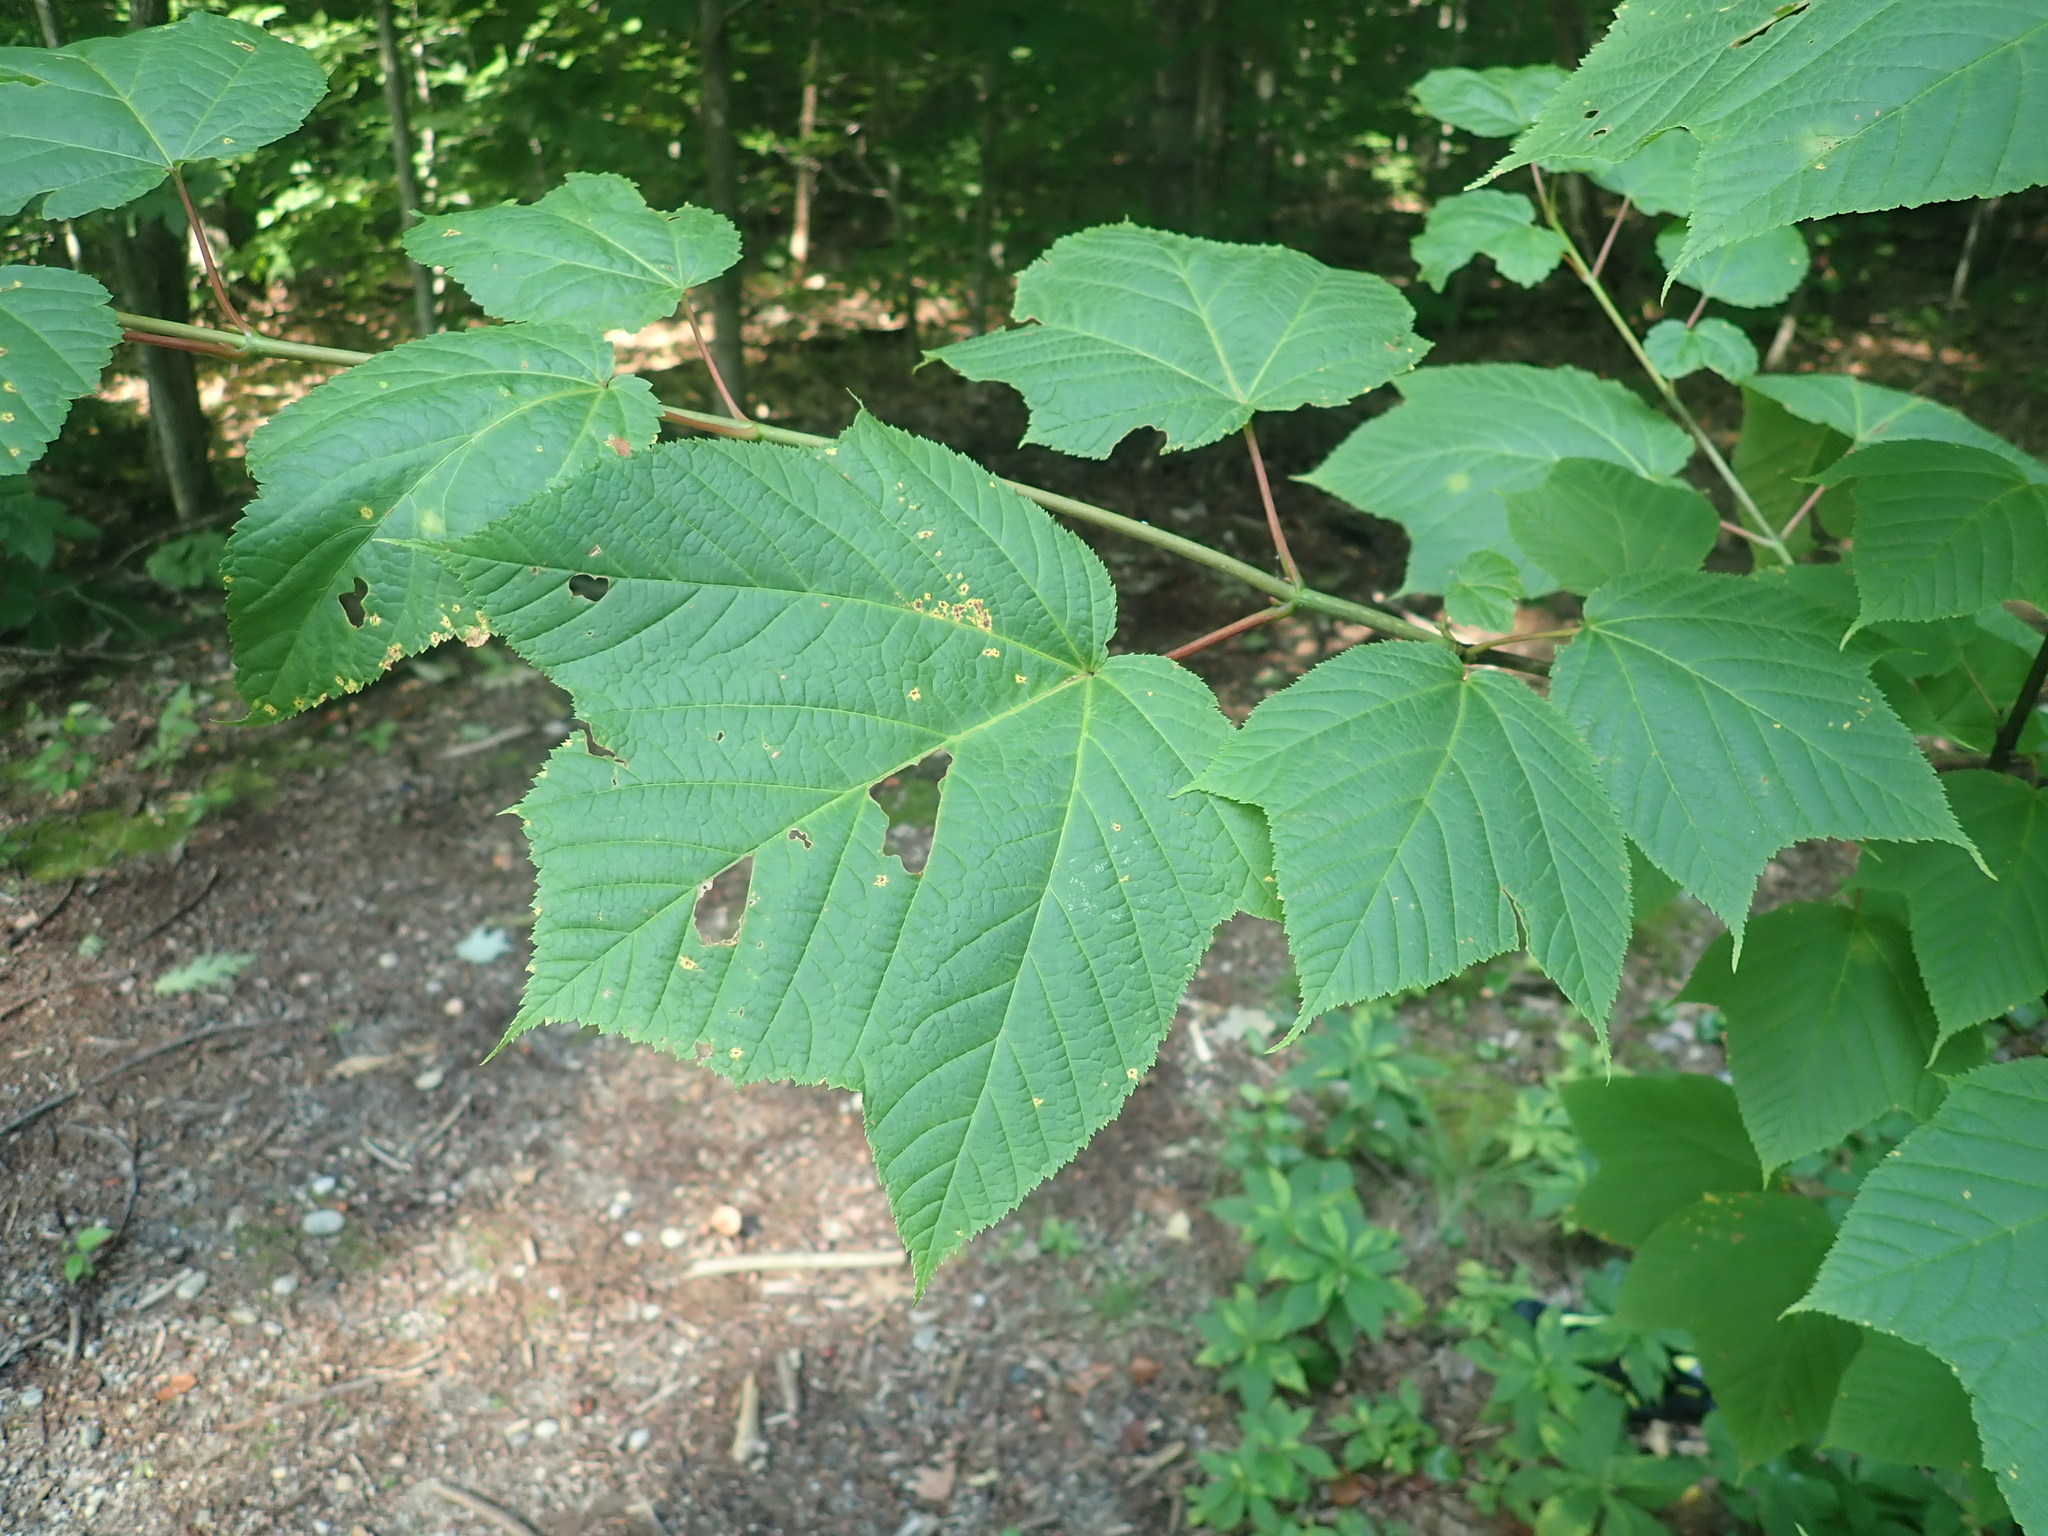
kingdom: Plantae
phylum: Tracheophyta
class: Magnoliopsida
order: Sapindales
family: Sapindaceae
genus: Acer
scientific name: Acer pensylvanicum
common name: Moosewood
